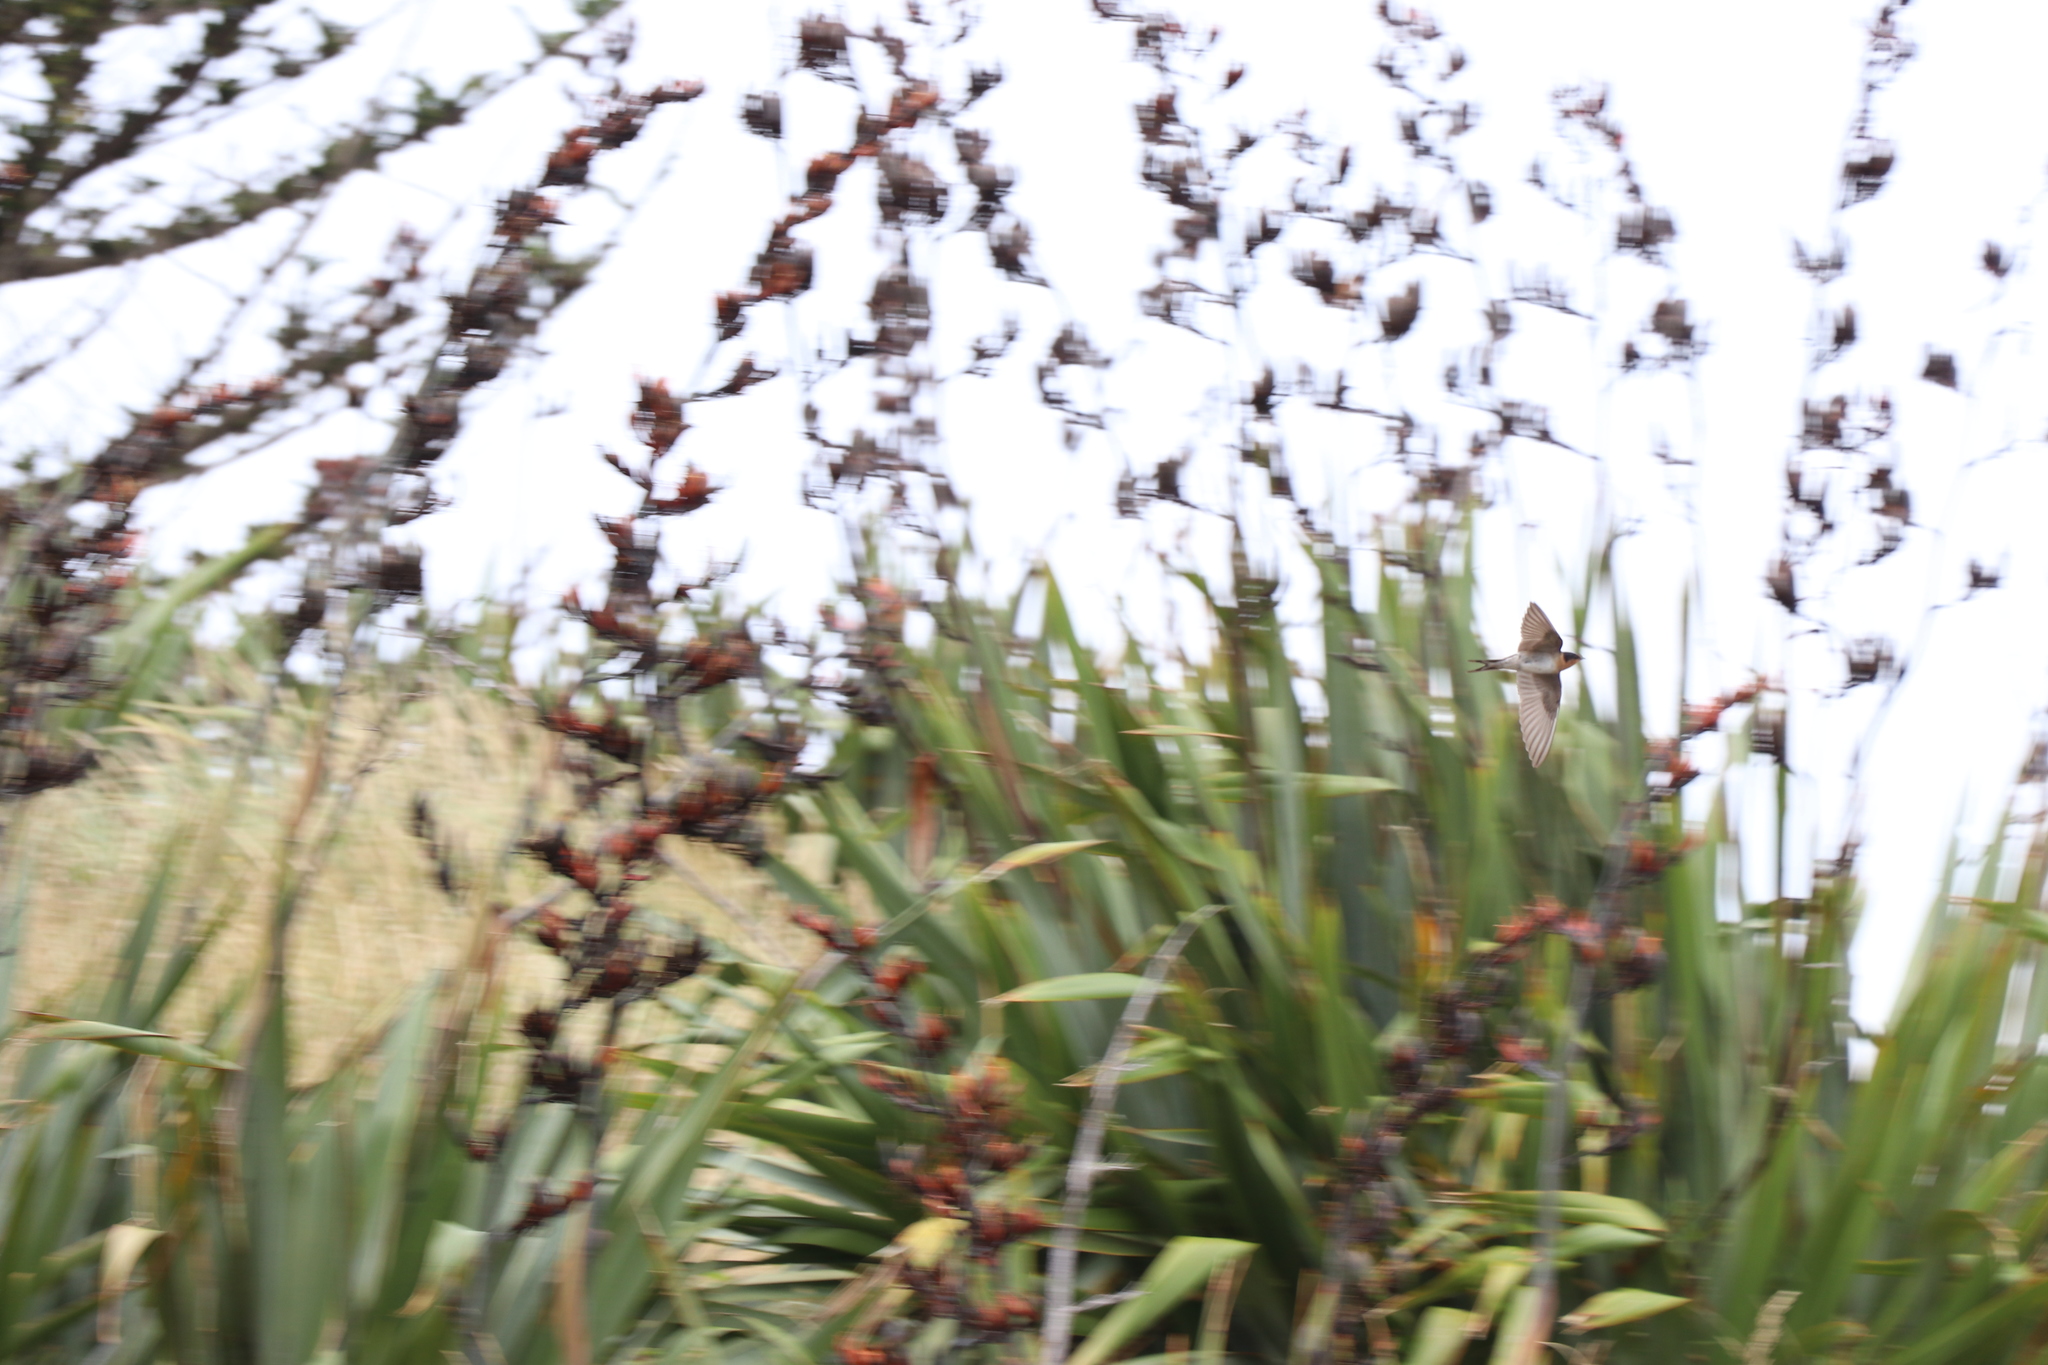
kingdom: Animalia
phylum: Chordata
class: Aves
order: Passeriformes
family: Hirundinidae
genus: Hirundo
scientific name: Hirundo neoxena
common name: Welcome swallow
